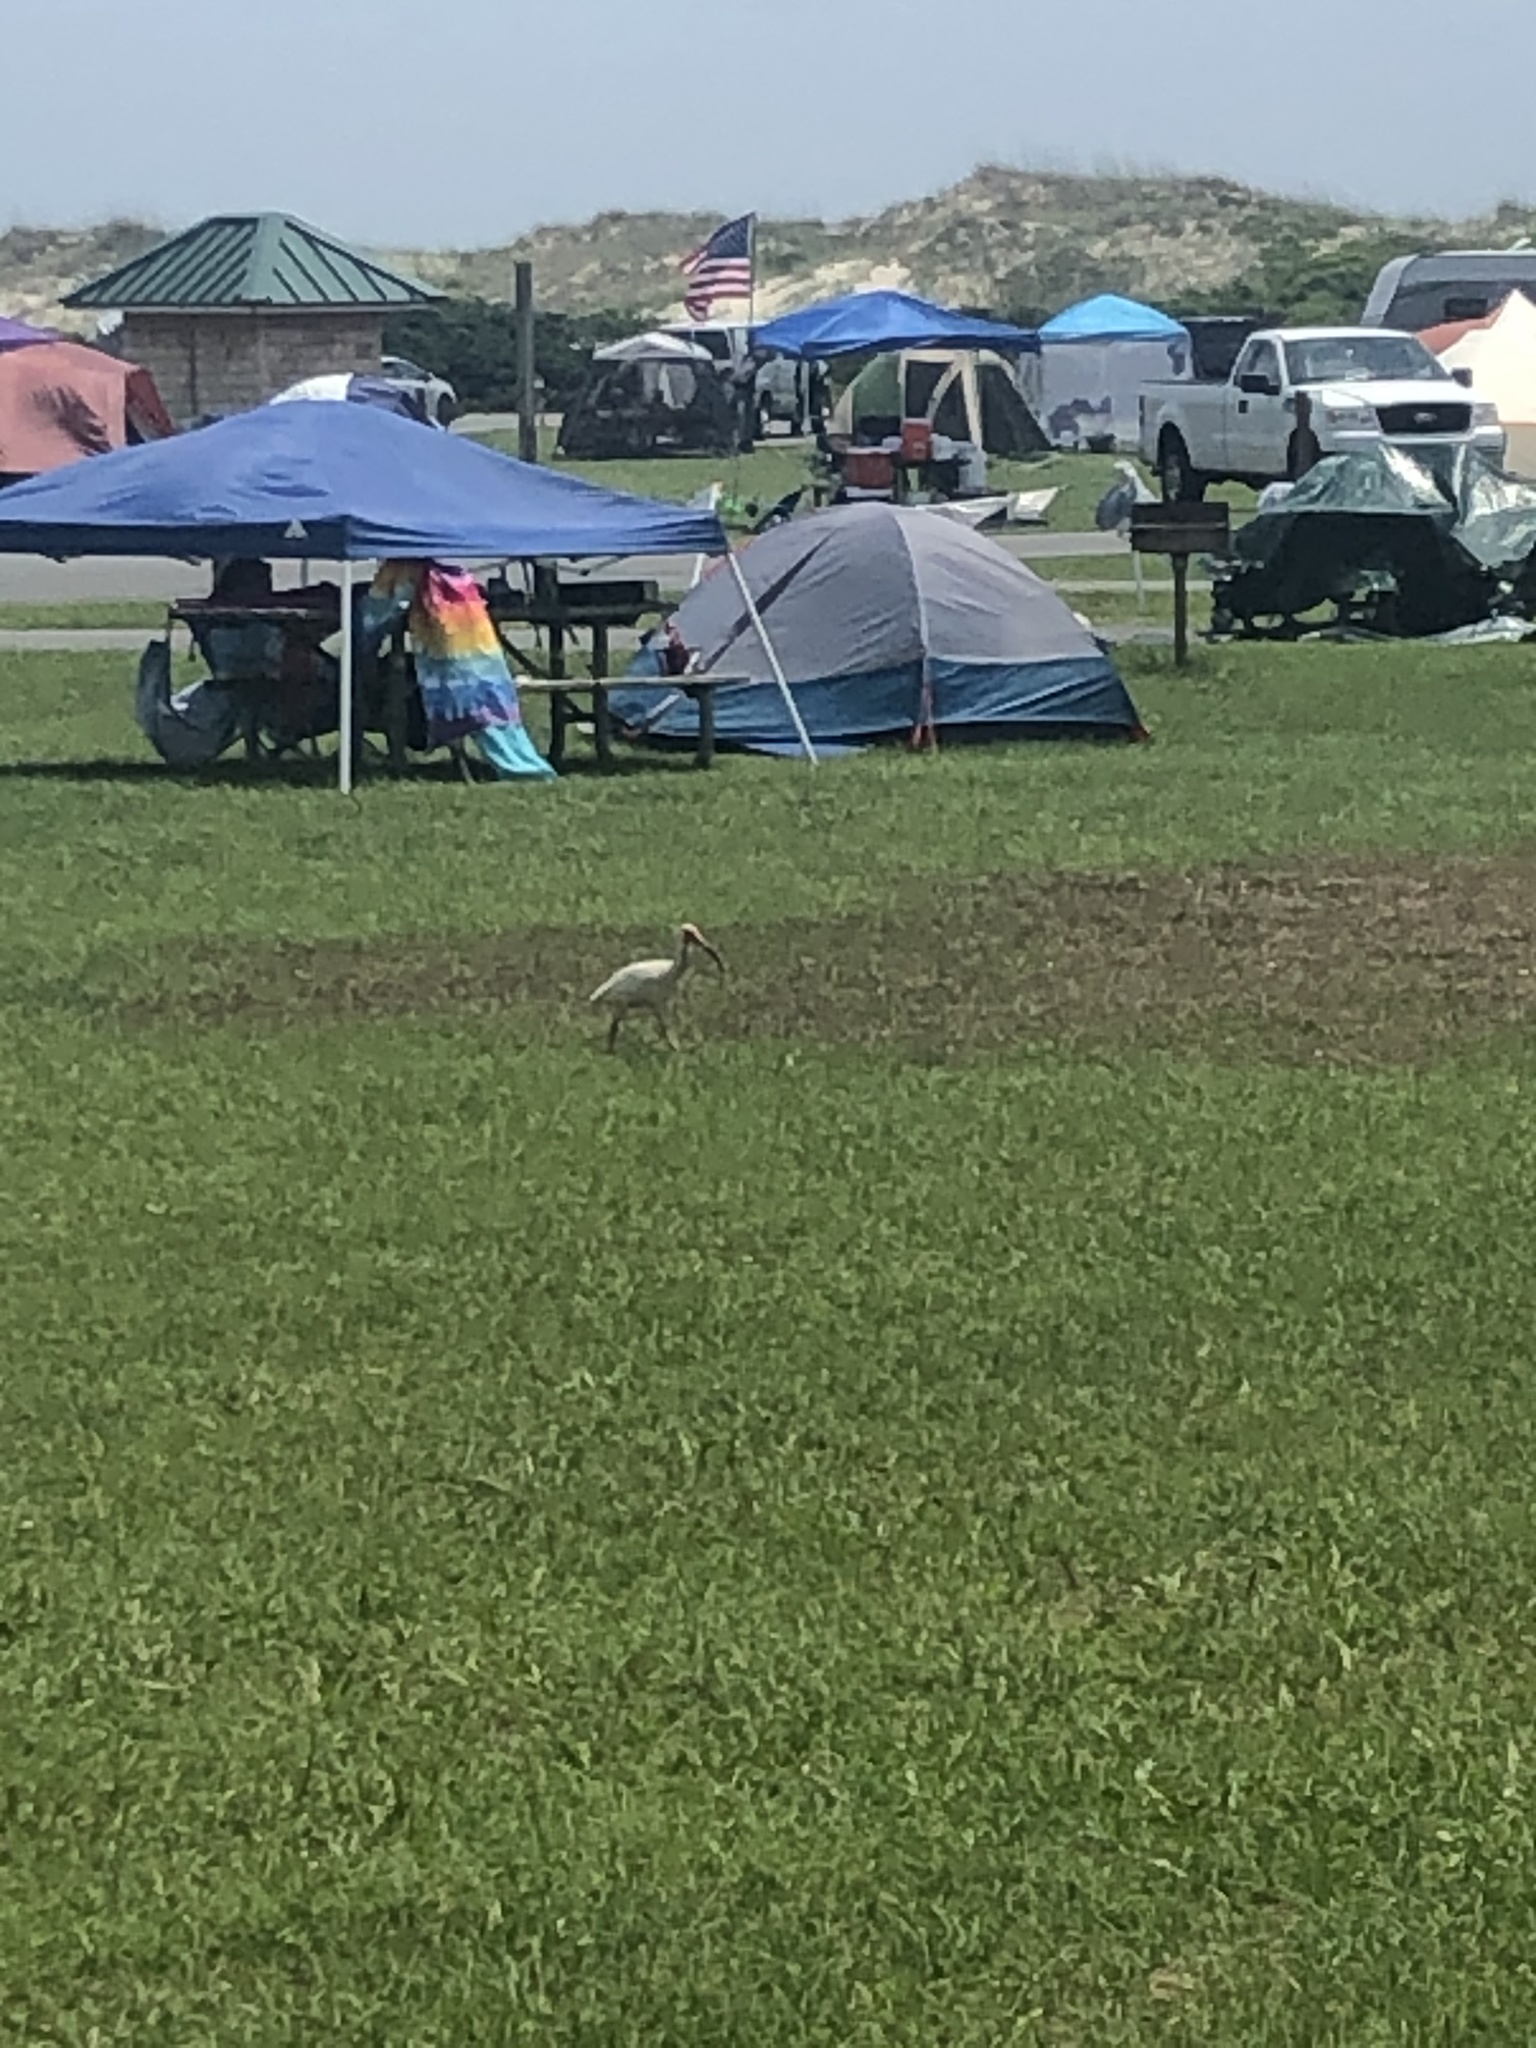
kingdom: Animalia
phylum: Chordata
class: Aves
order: Pelecaniformes
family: Threskiornithidae
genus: Eudocimus
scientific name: Eudocimus albus
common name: White ibis
